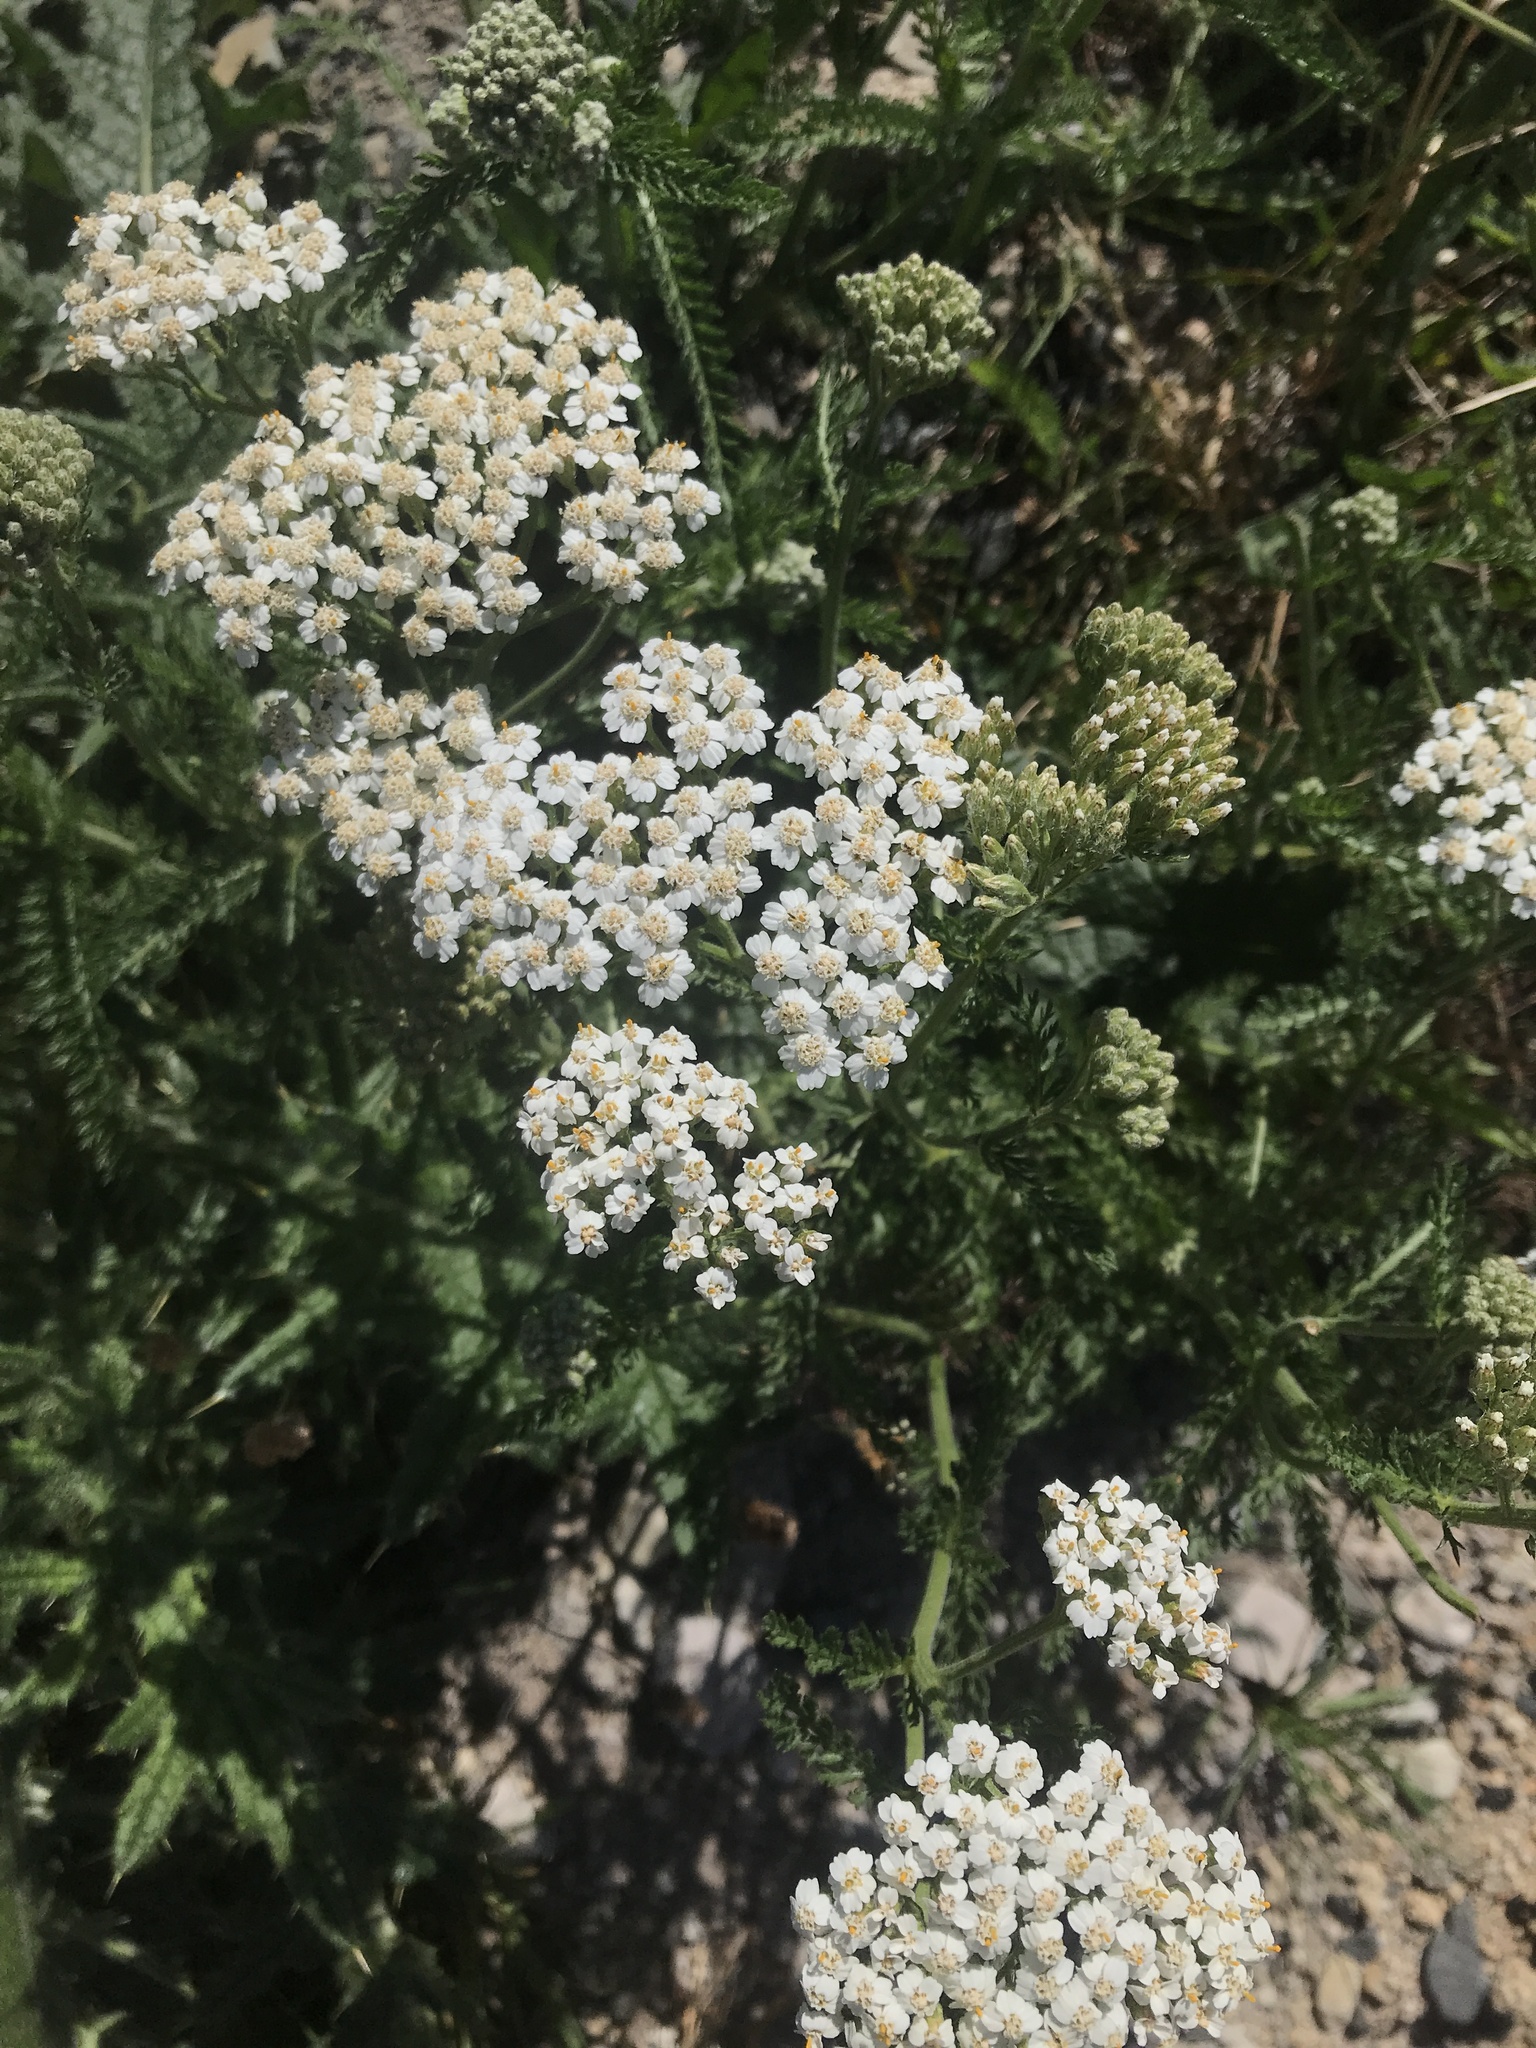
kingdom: Plantae
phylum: Tracheophyta
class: Magnoliopsida
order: Asterales
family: Asteraceae
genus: Achillea
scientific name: Achillea millefolium
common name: Yarrow
